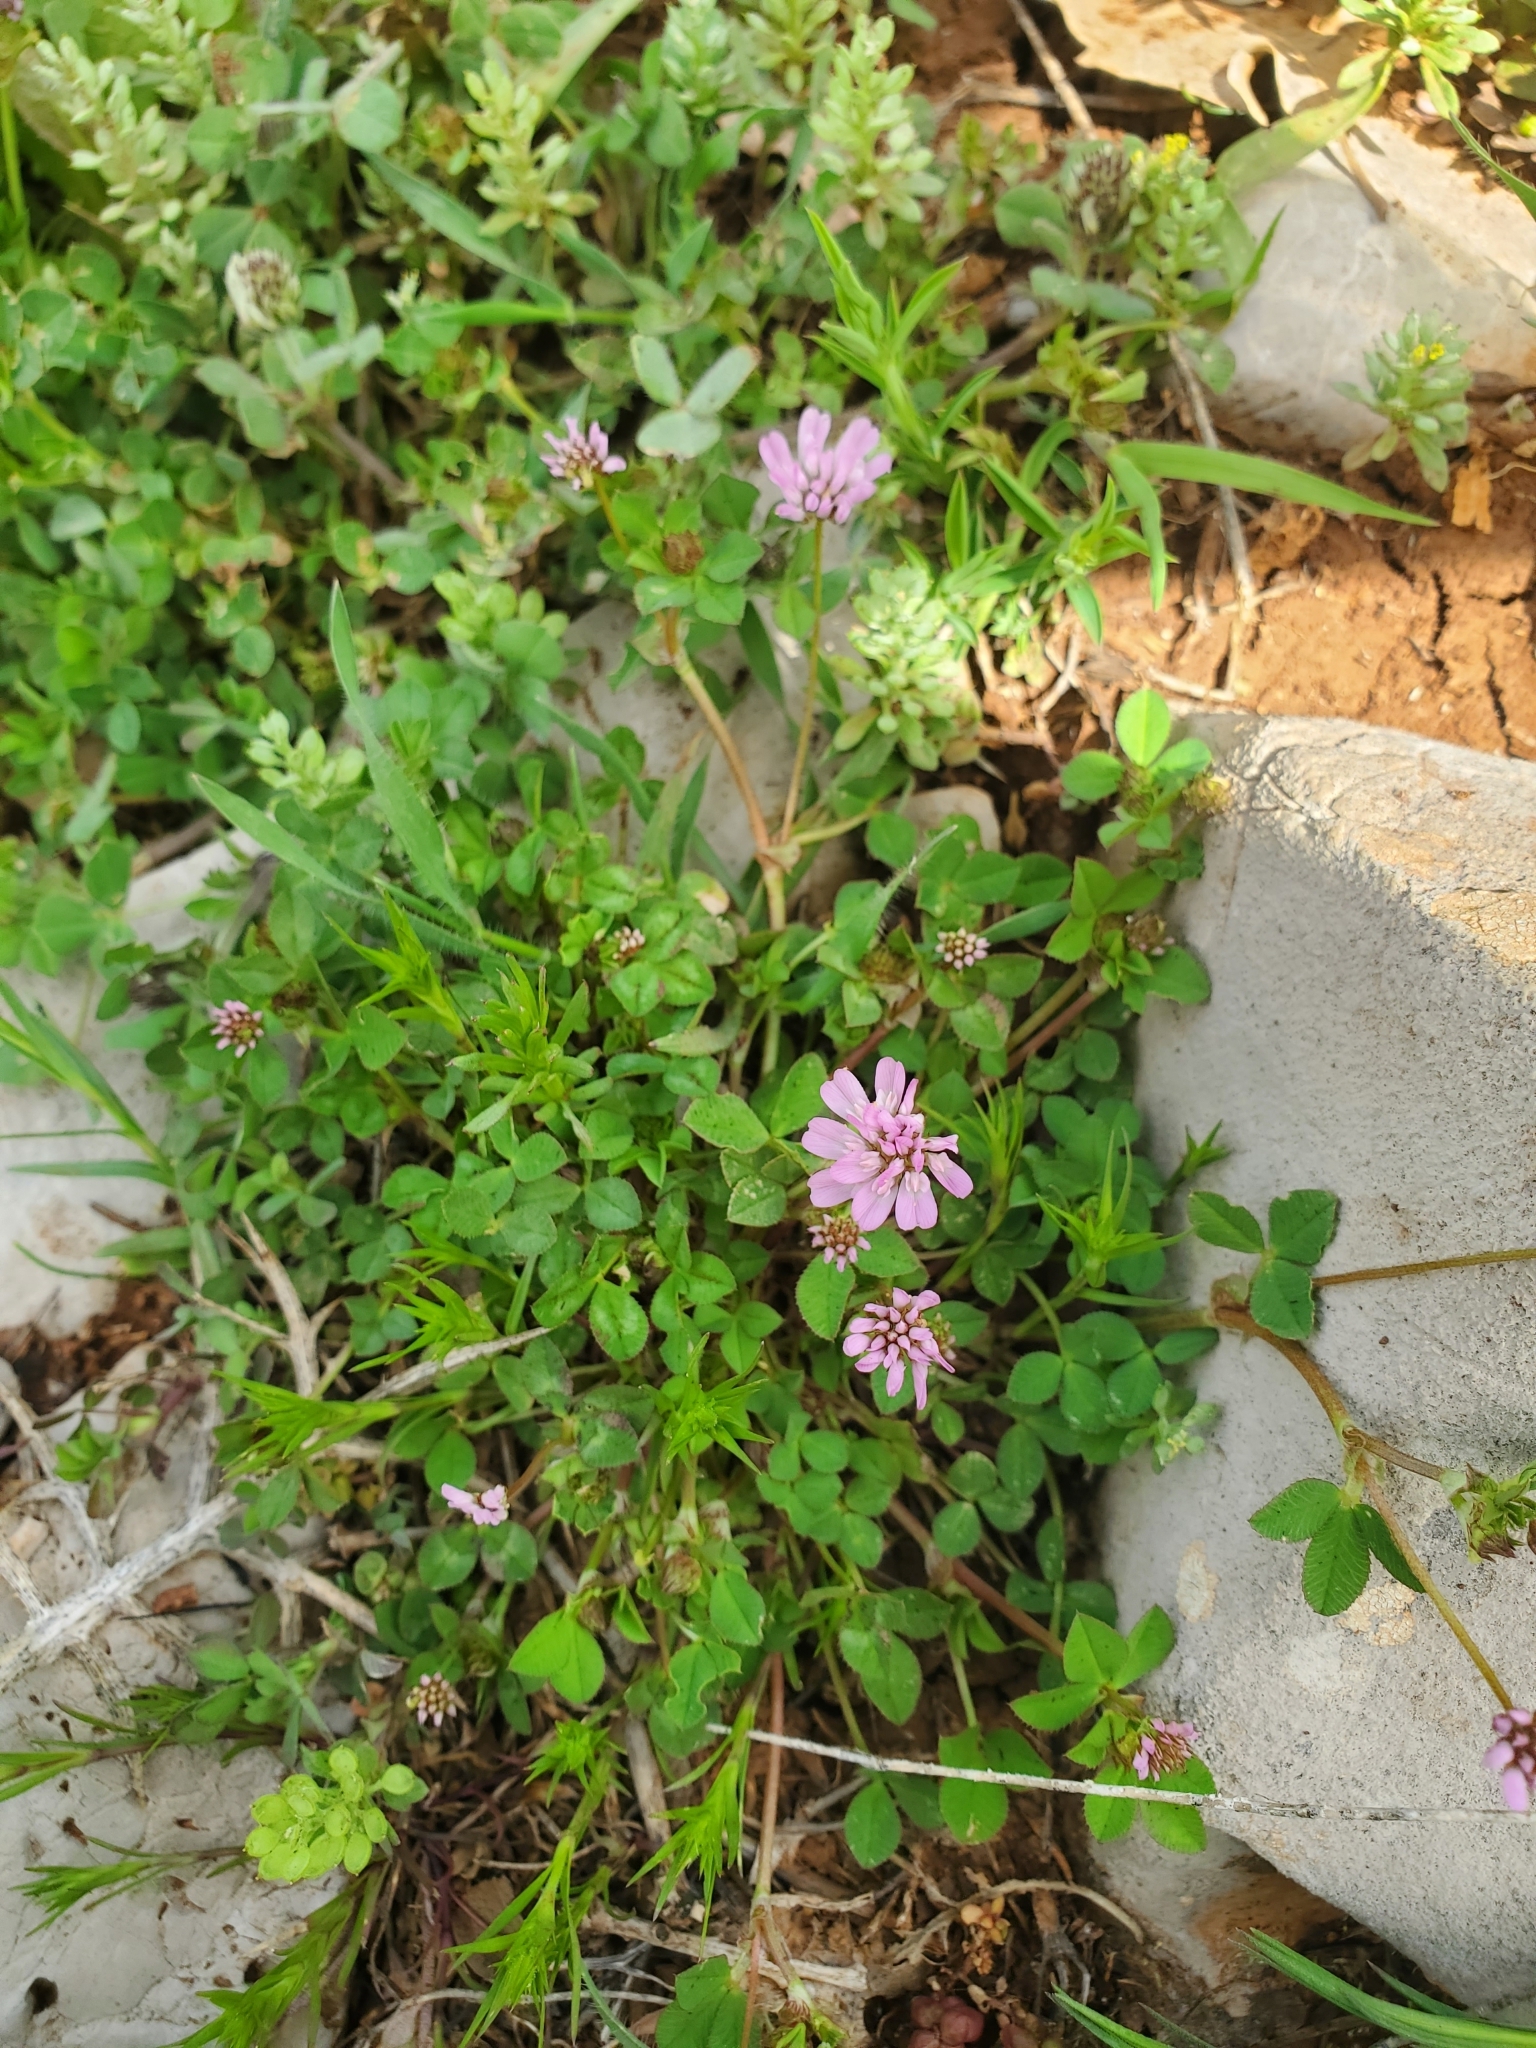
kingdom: Plantae
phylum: Tracheophyta
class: Magnoliopsida
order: Fabales
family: Fabaceae
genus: Trifolium
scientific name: Trifolium resupinatum
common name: Reversed clover
